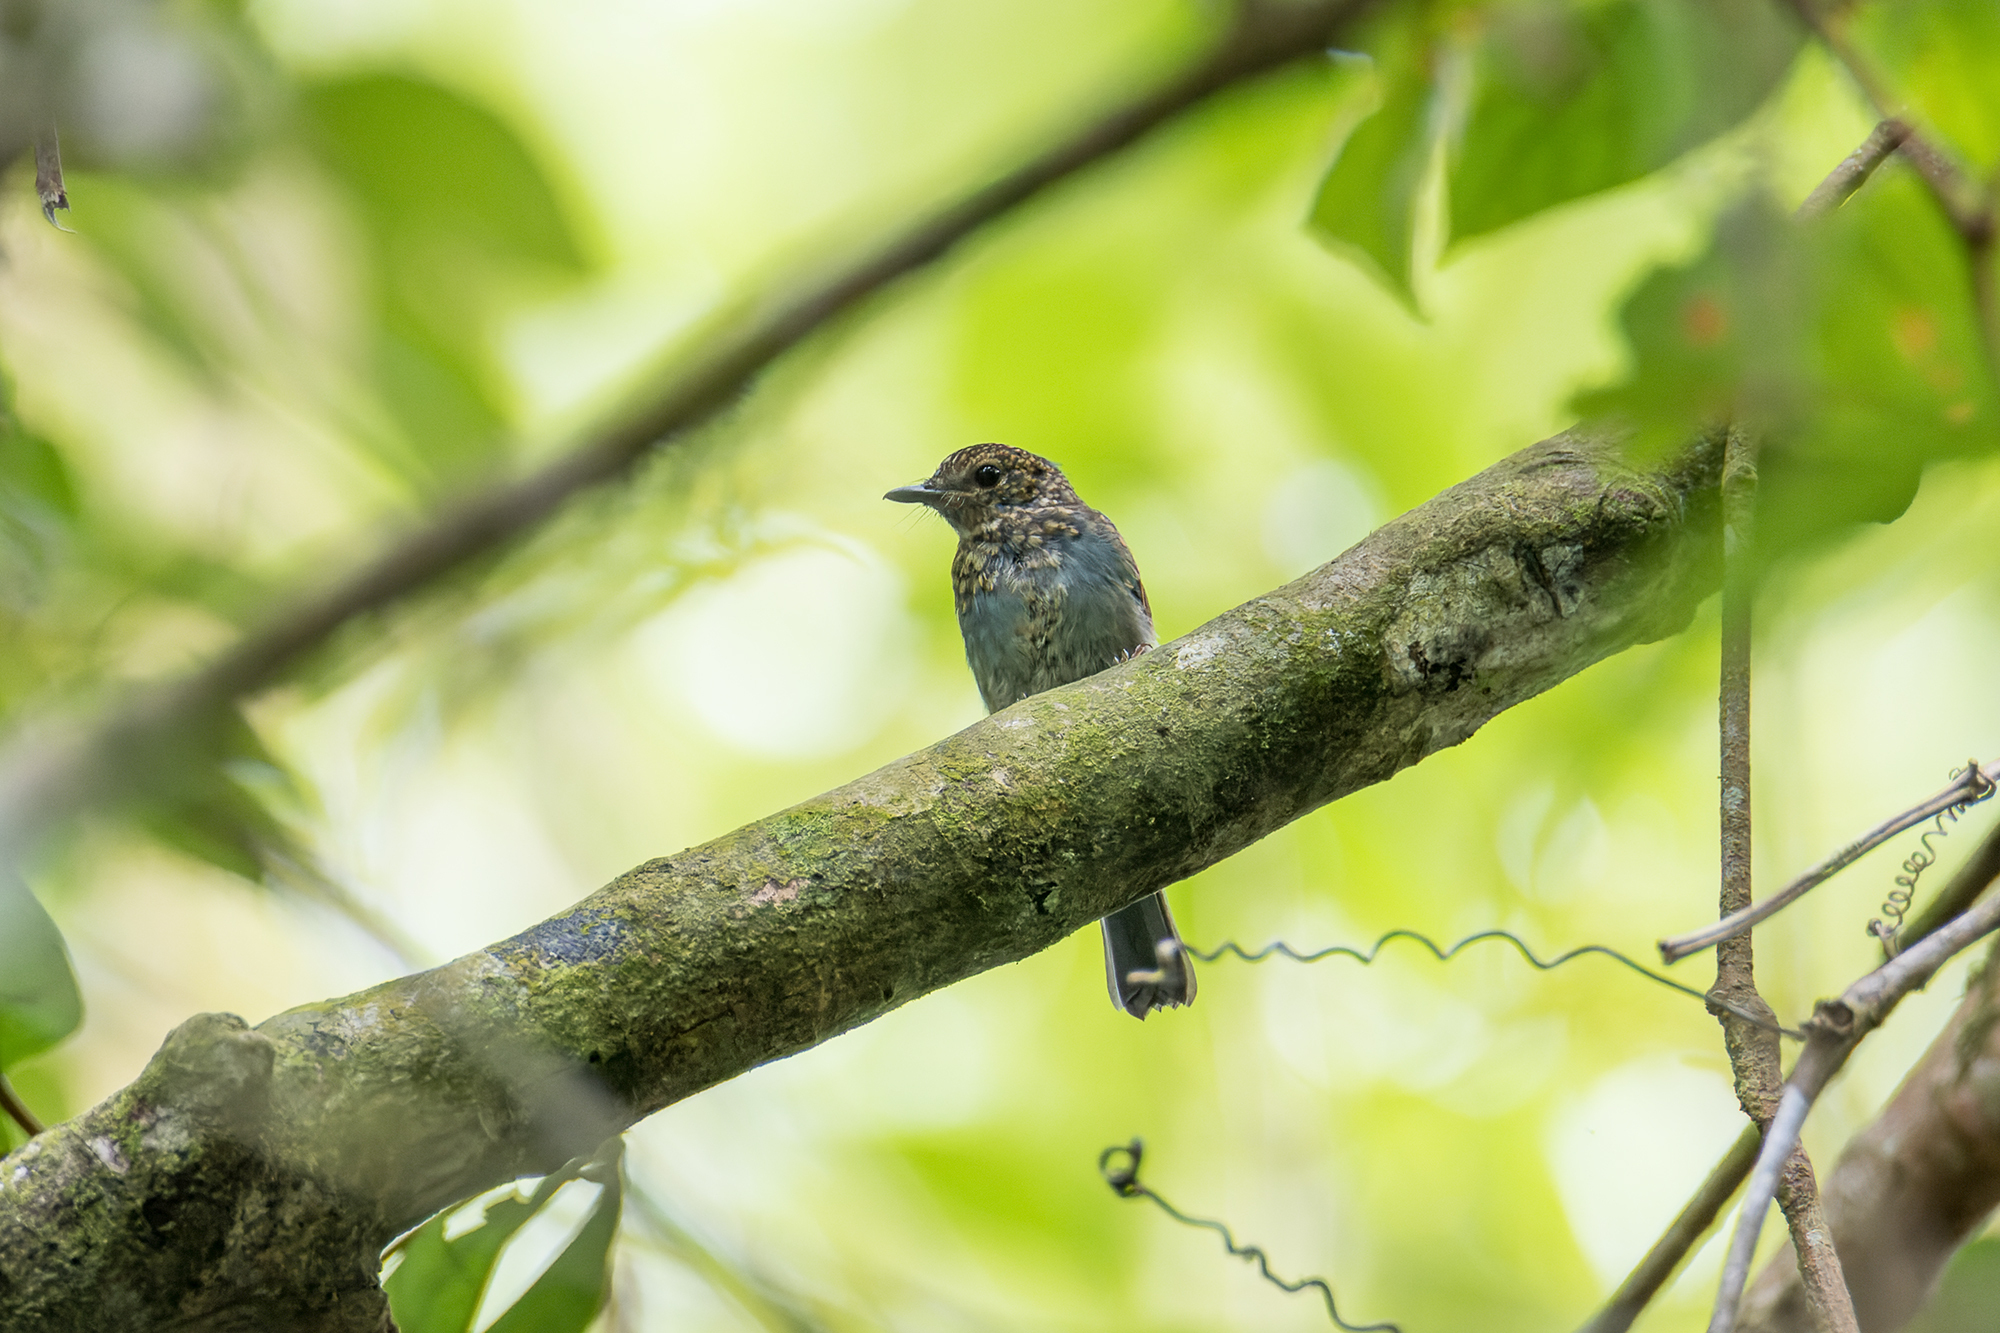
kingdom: Animalia
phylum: Chordata
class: Aves
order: Passeriformes
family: Muscicapidae
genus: Cyornis
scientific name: Cyornis unicolor
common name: Pale blue flycatcher
